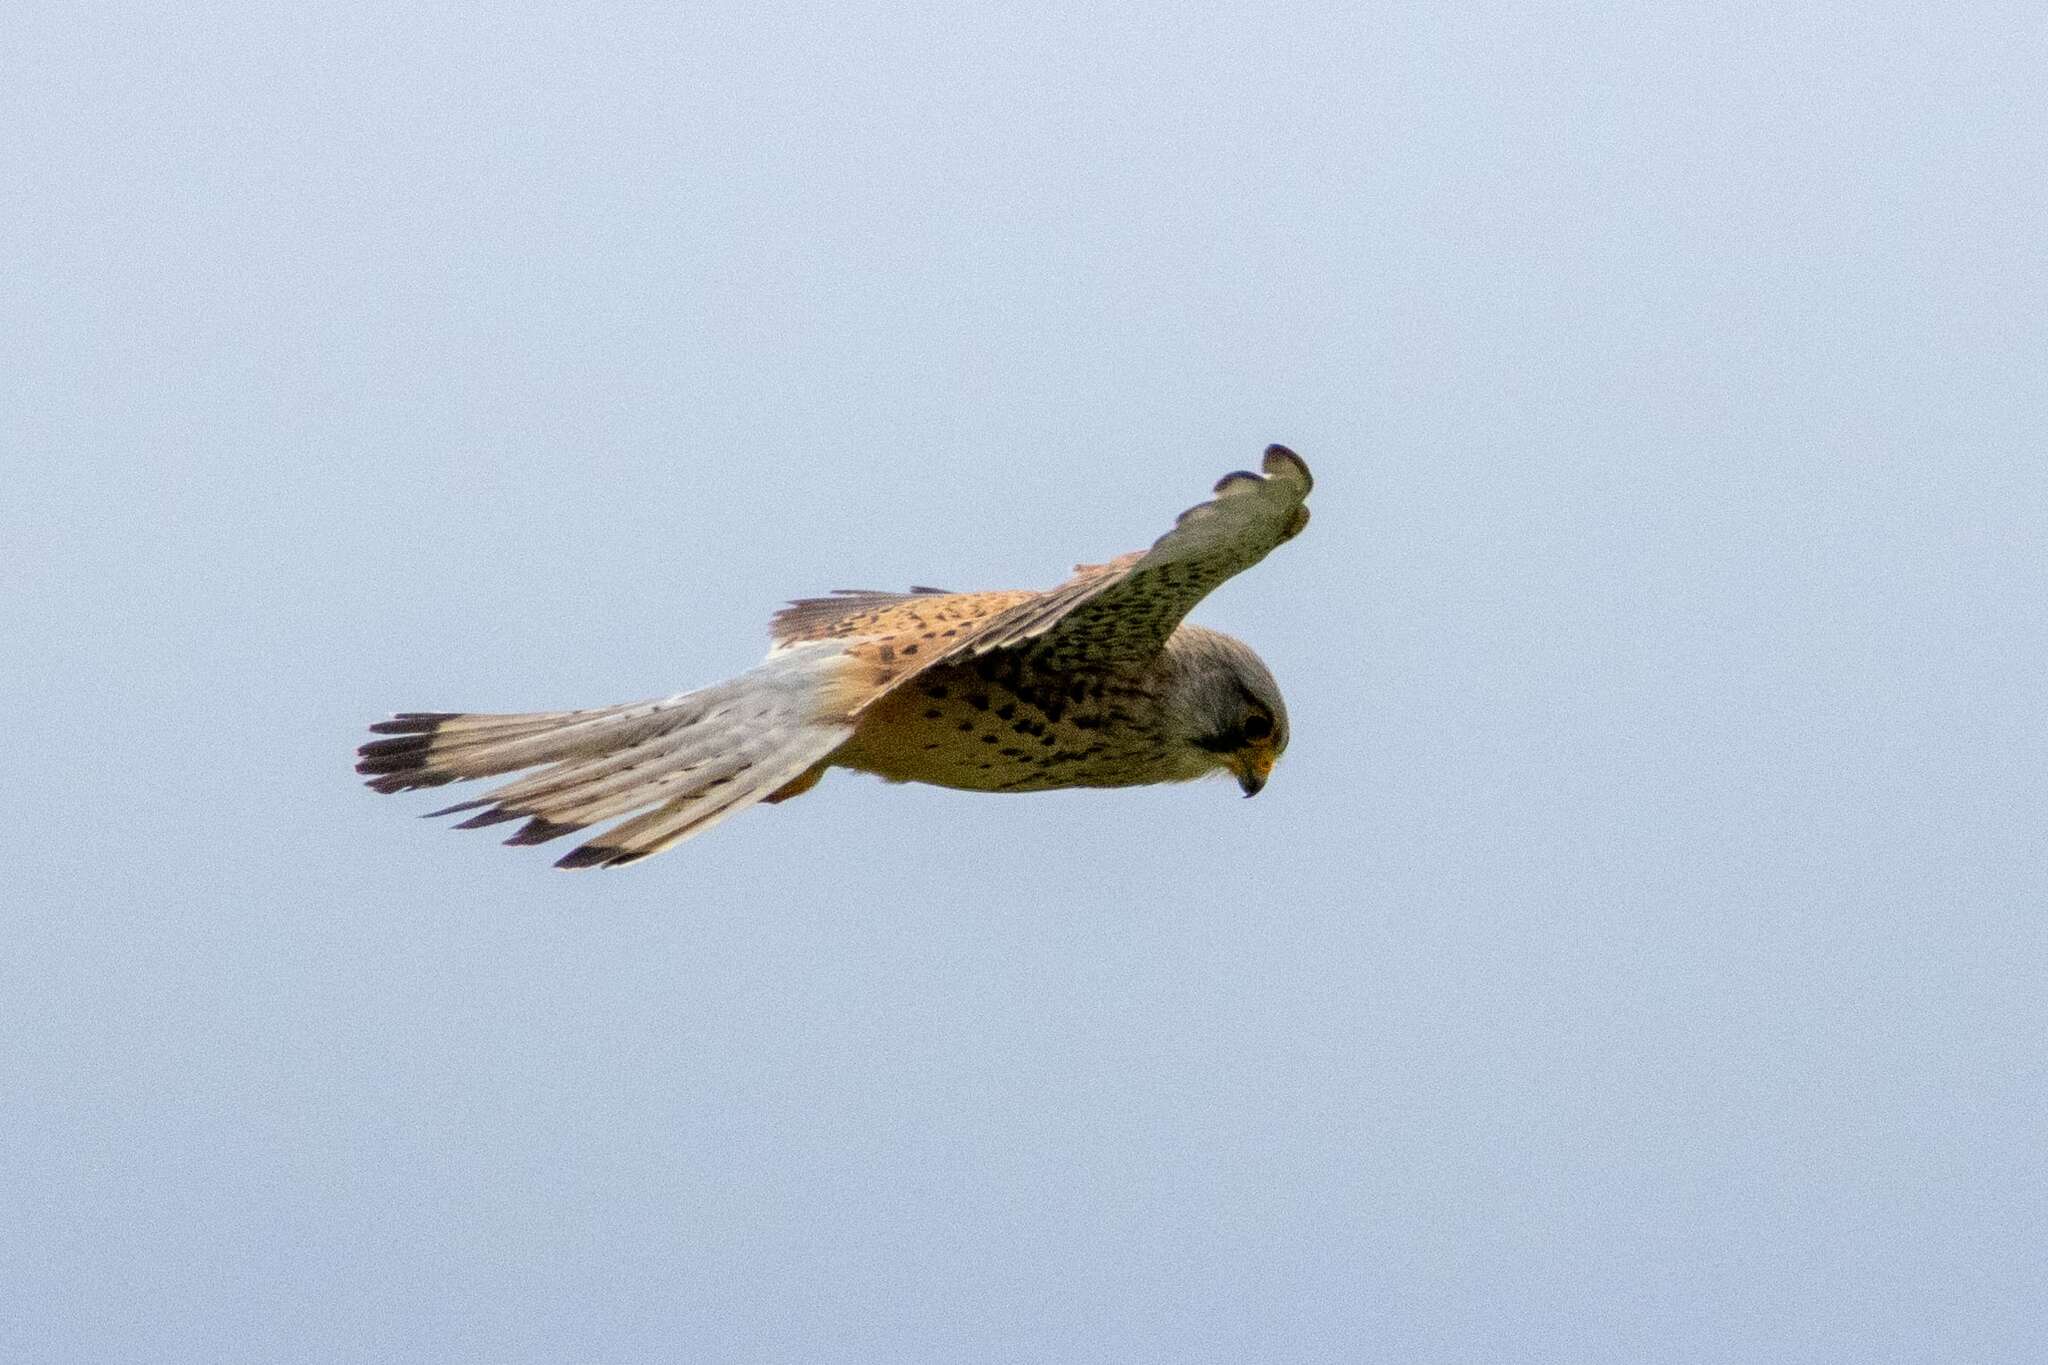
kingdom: Animalia
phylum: Chordata
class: Aves
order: Falconiformes
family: Falconidae
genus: Falco
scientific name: Falco tinnunculus
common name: Common kestrel
